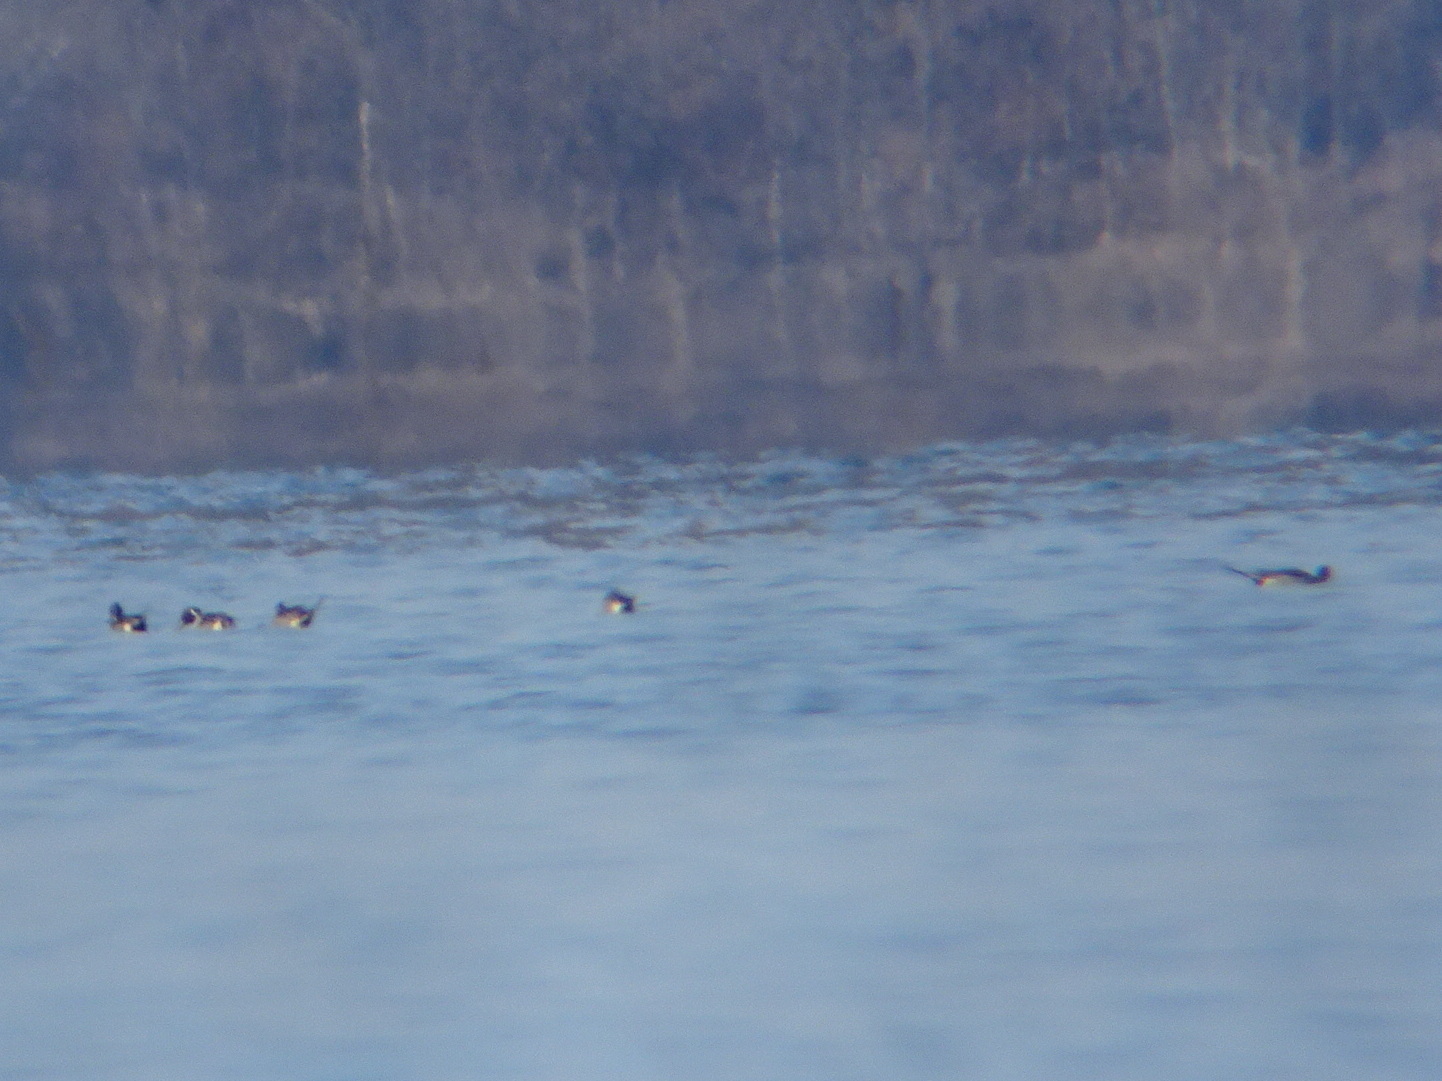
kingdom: Animalia
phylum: Chordata
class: Aves
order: Anseriformes
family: Anatidae
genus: Anas
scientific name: Anas acuta
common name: Northern pintail
